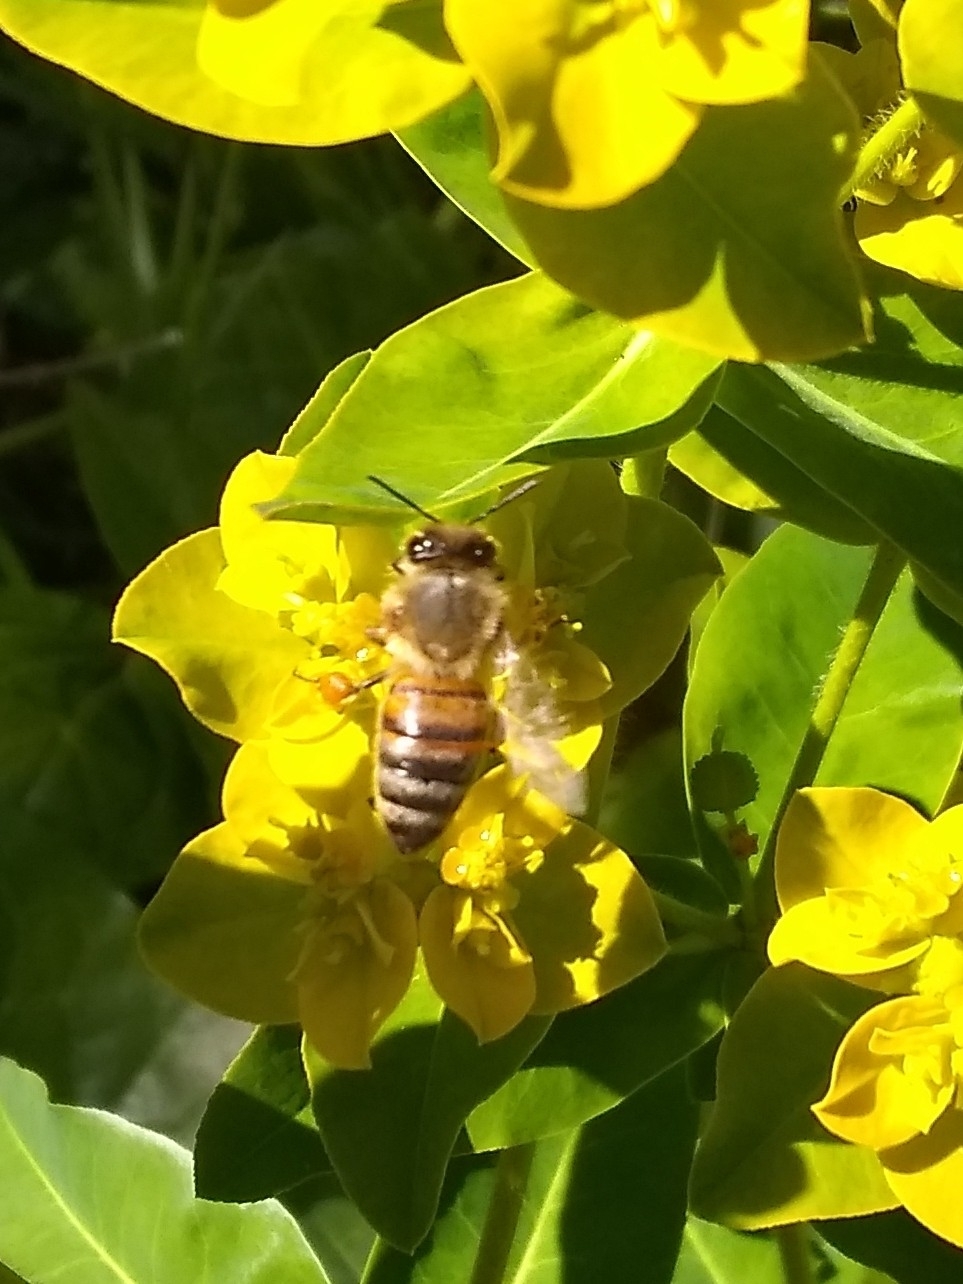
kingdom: Animalia
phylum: Arthropoda
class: Insecta
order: Hymenoptera
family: Apidae
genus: Apis
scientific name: Apis mellifera
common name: Honey bee
